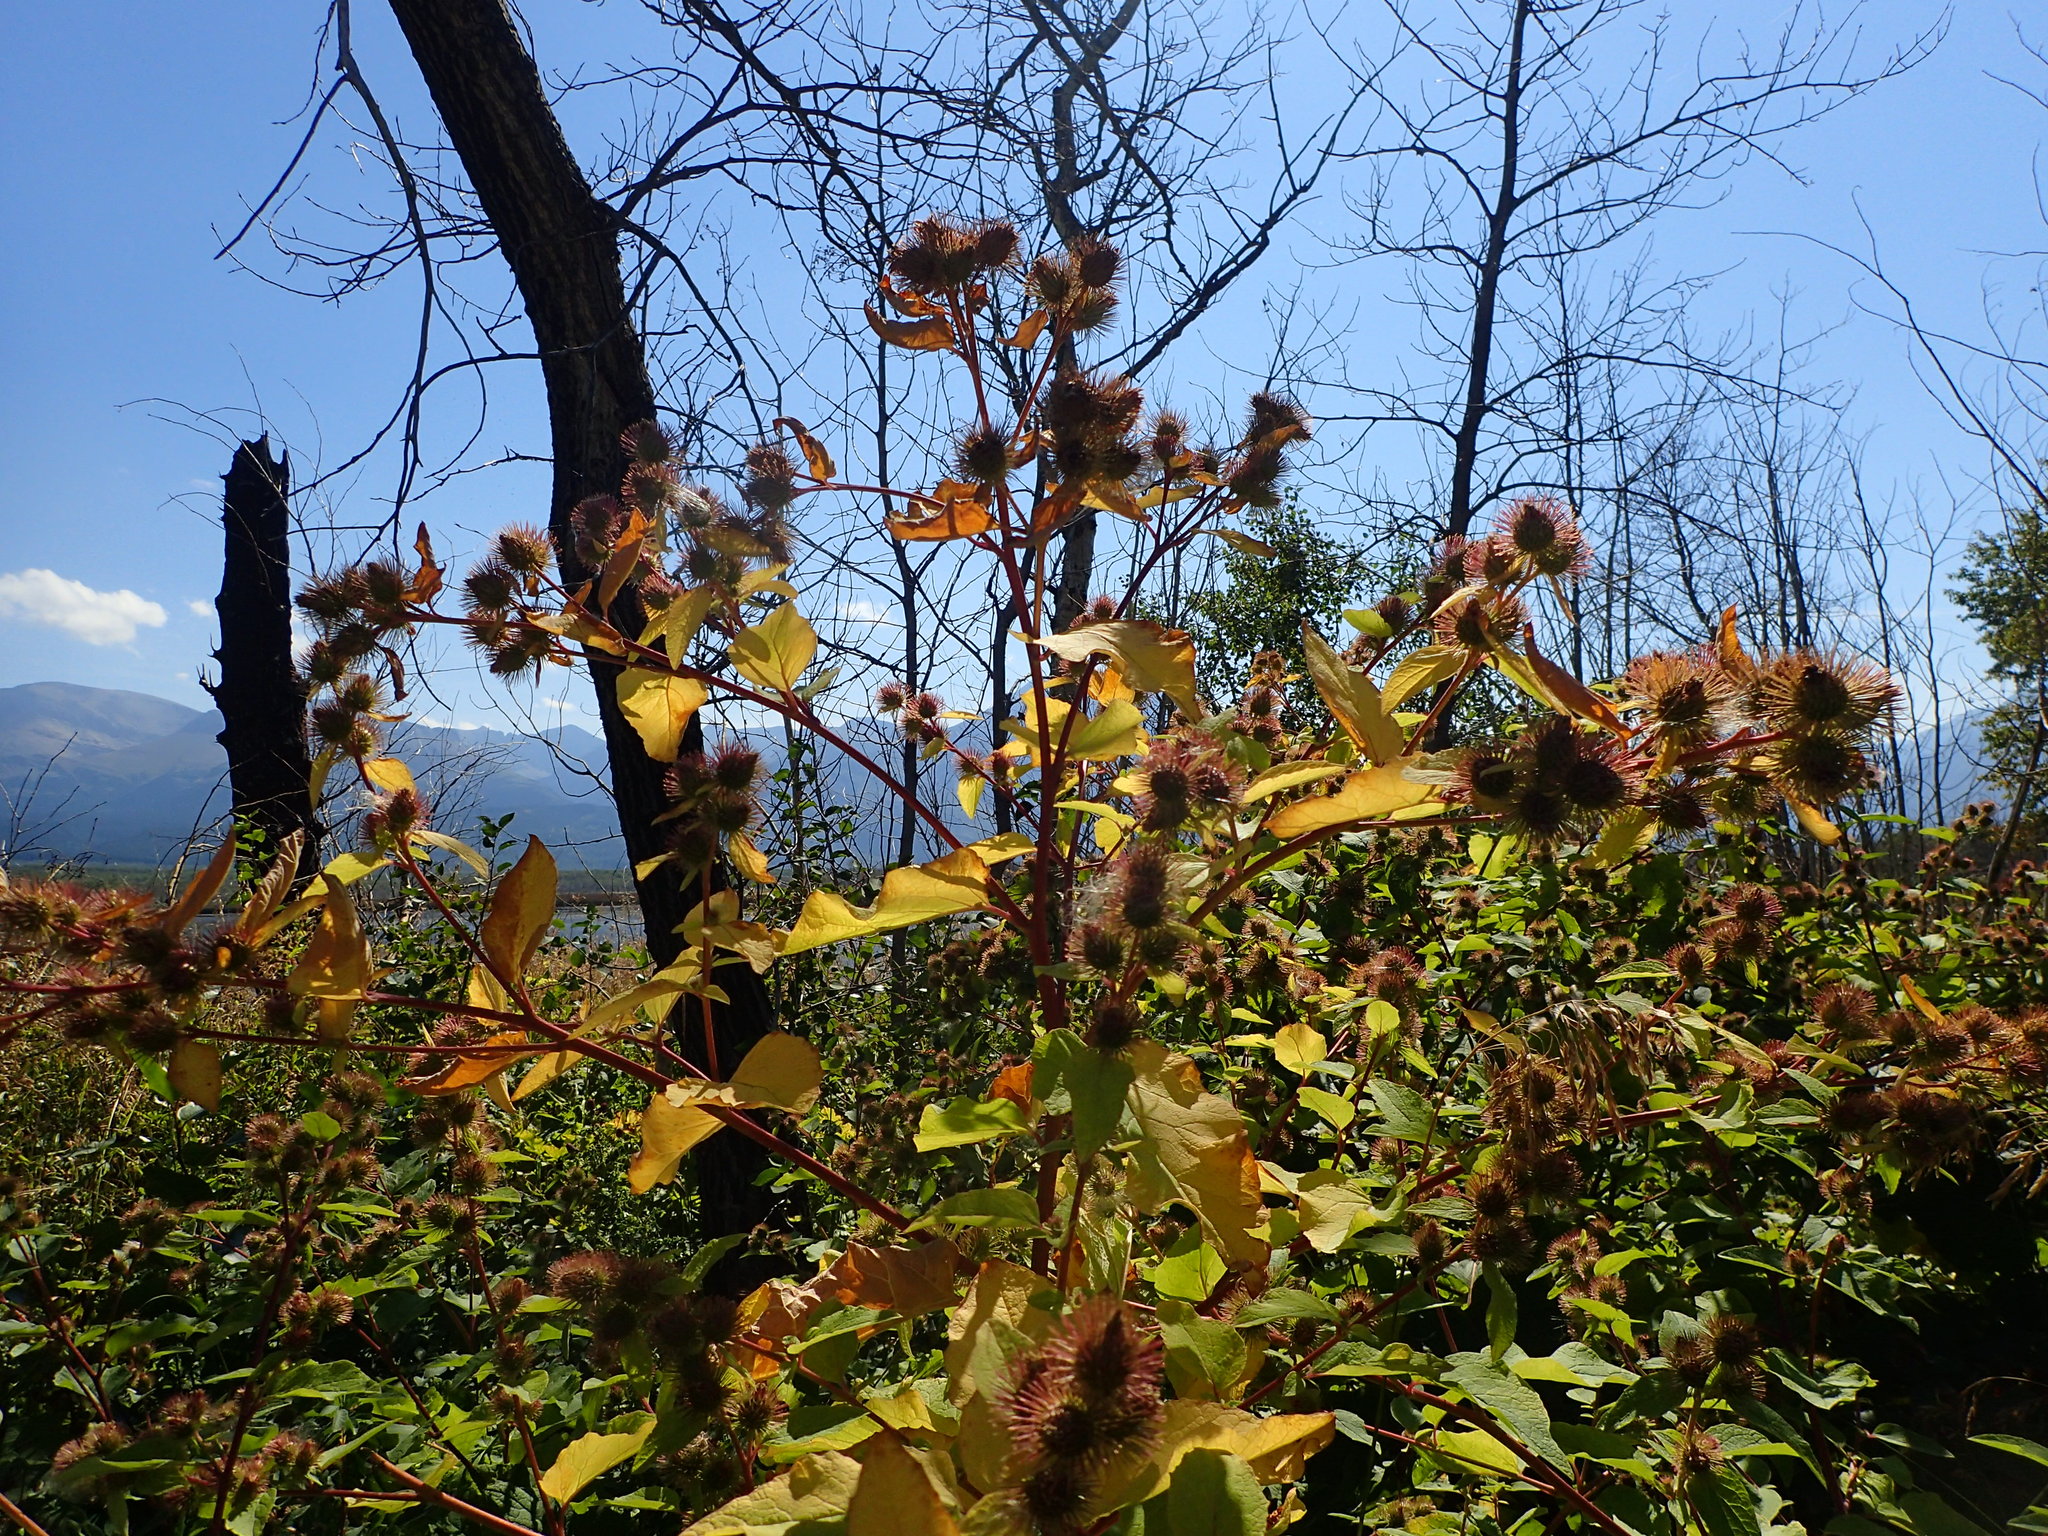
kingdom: Plantae
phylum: Tracheophyta
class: Magnoliopsida
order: Asterales
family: Asteraceae
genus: Arctium
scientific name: Arctium minus
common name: Lesser burdock
